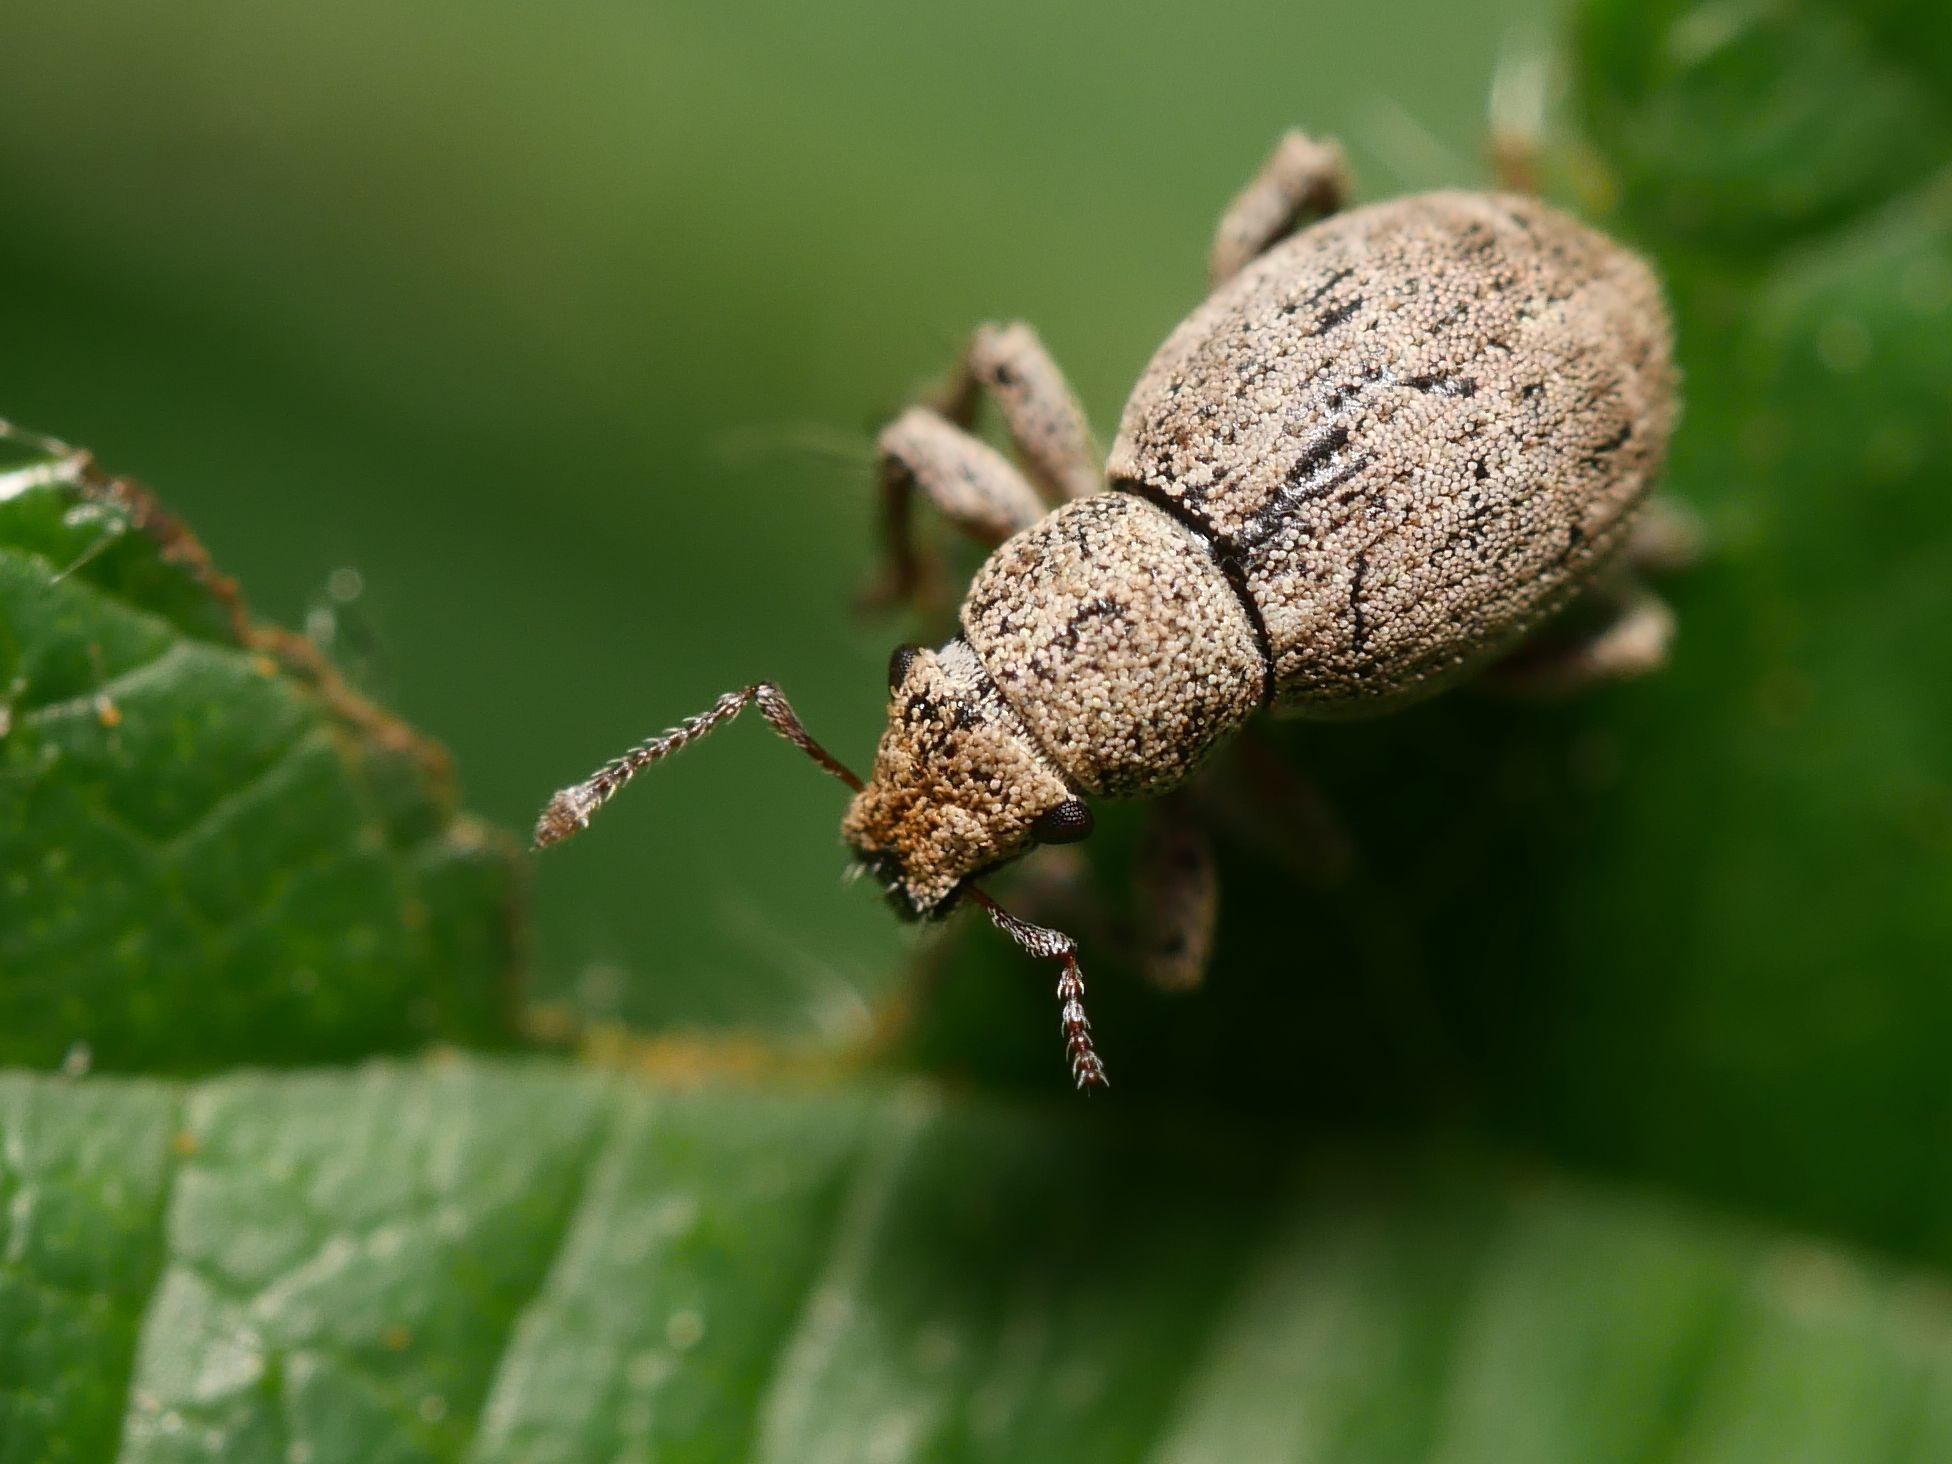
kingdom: Animalia
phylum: Arthropoda
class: Insecta
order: Coleoptera
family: Curculionidae
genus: Strophosoma
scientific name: Strophosoma capitatum
